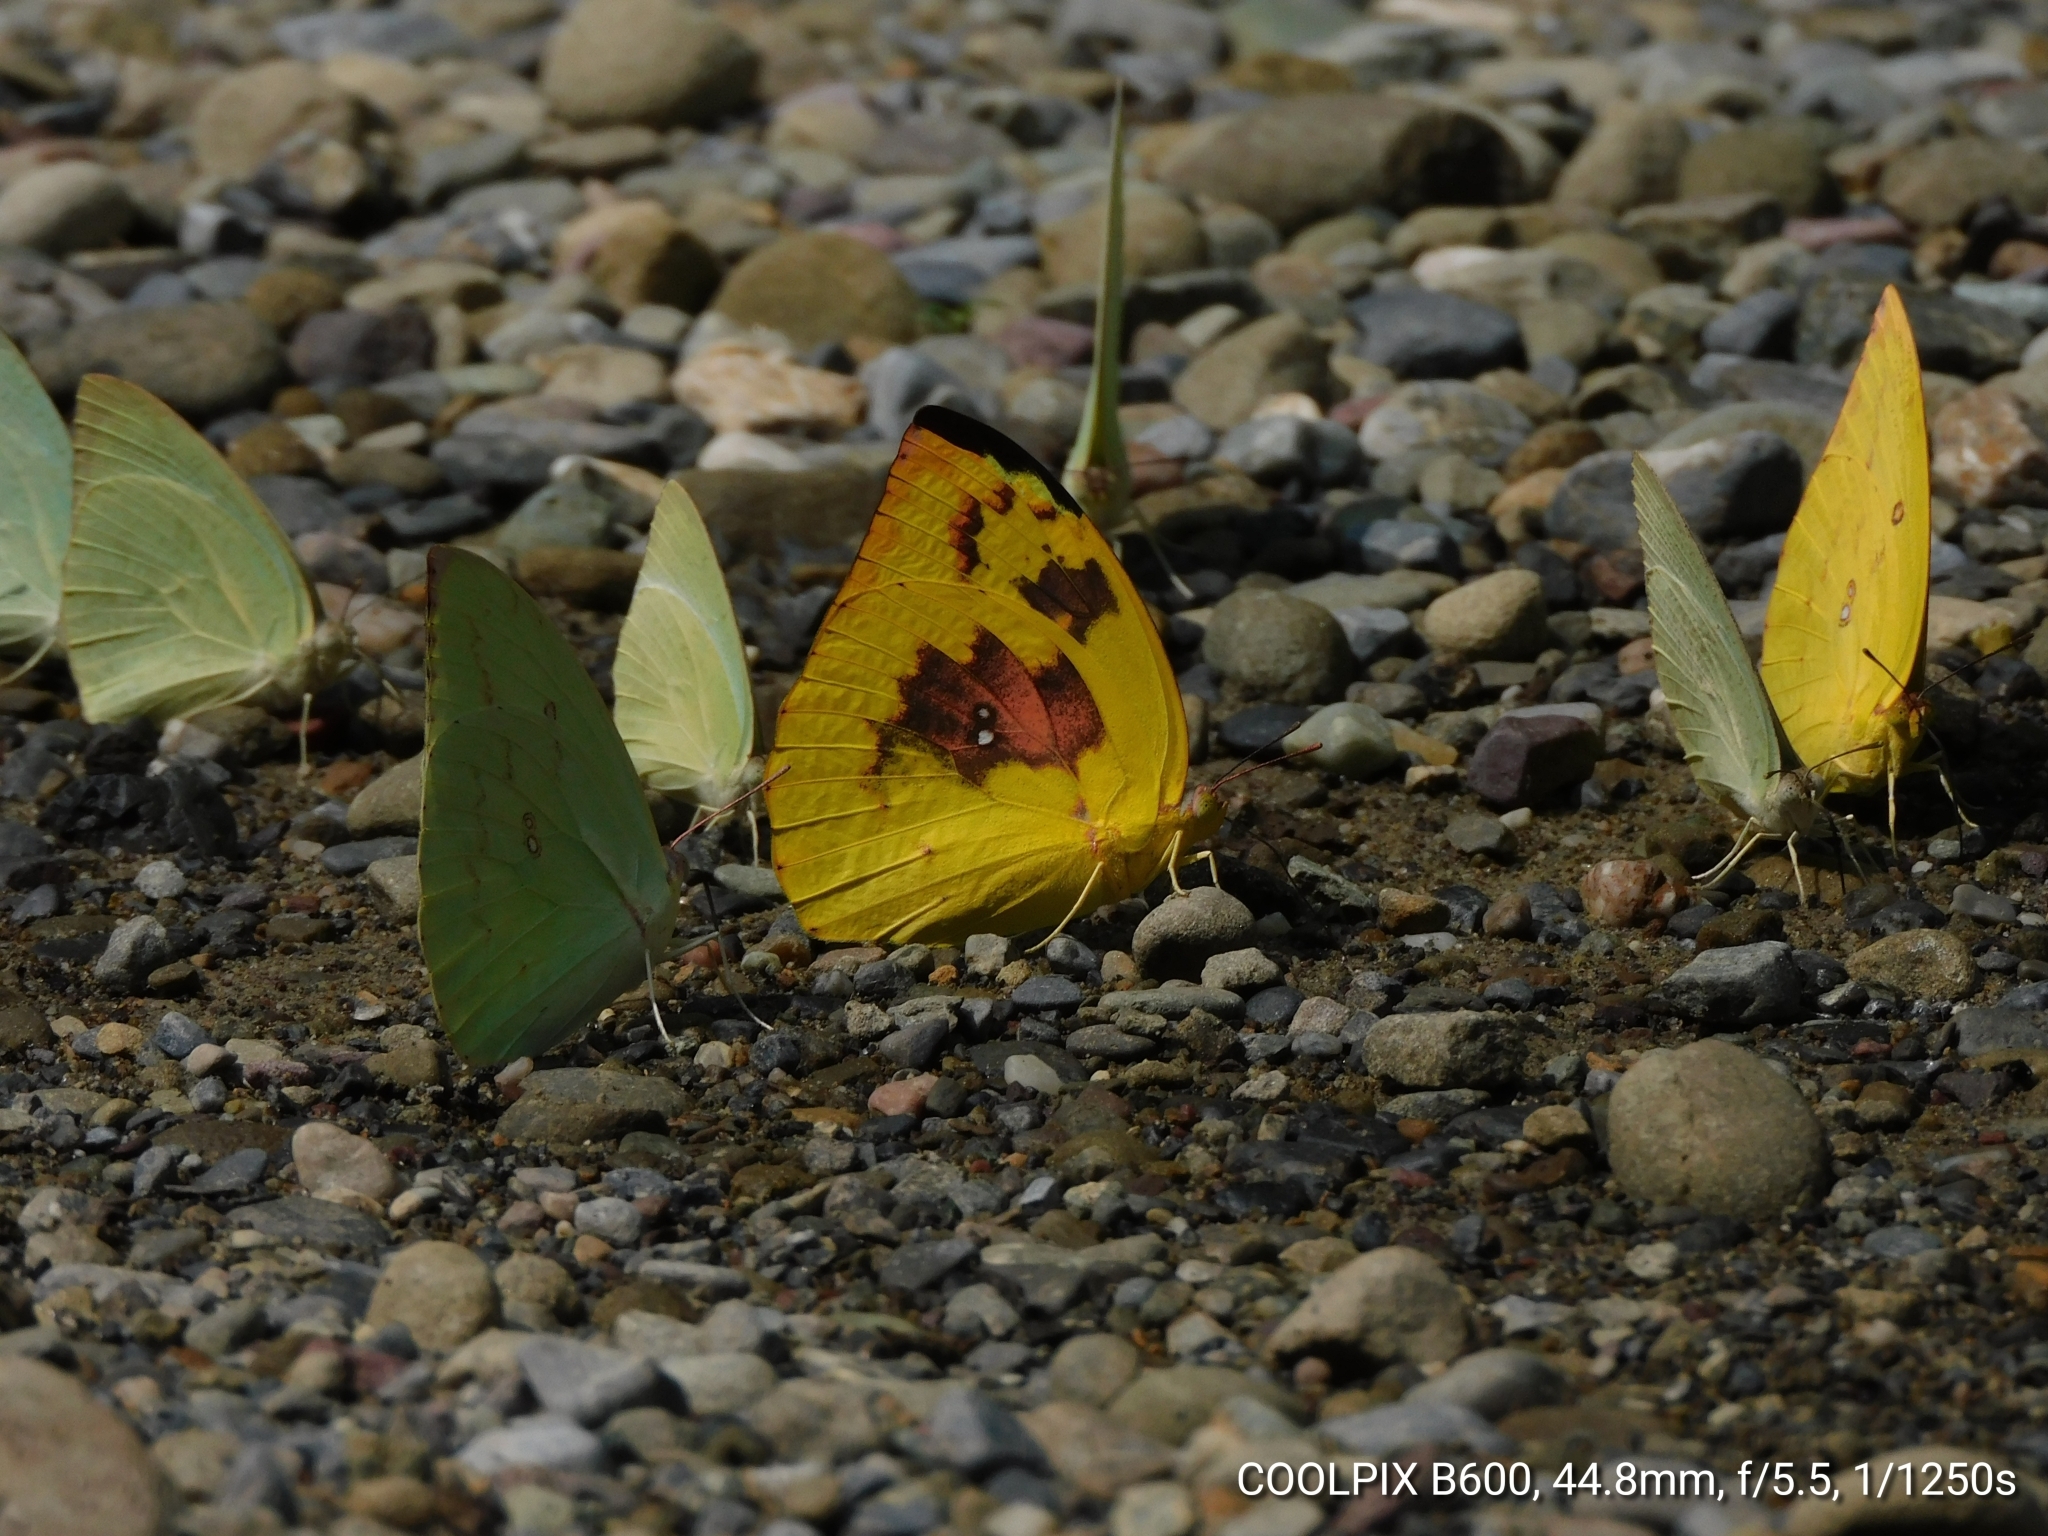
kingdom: Animalia
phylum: Arthropoda
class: Insecta
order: Lepidoptera
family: Pieridae
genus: Catopsilia
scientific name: Catopsilia pomona
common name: Common emigrant
